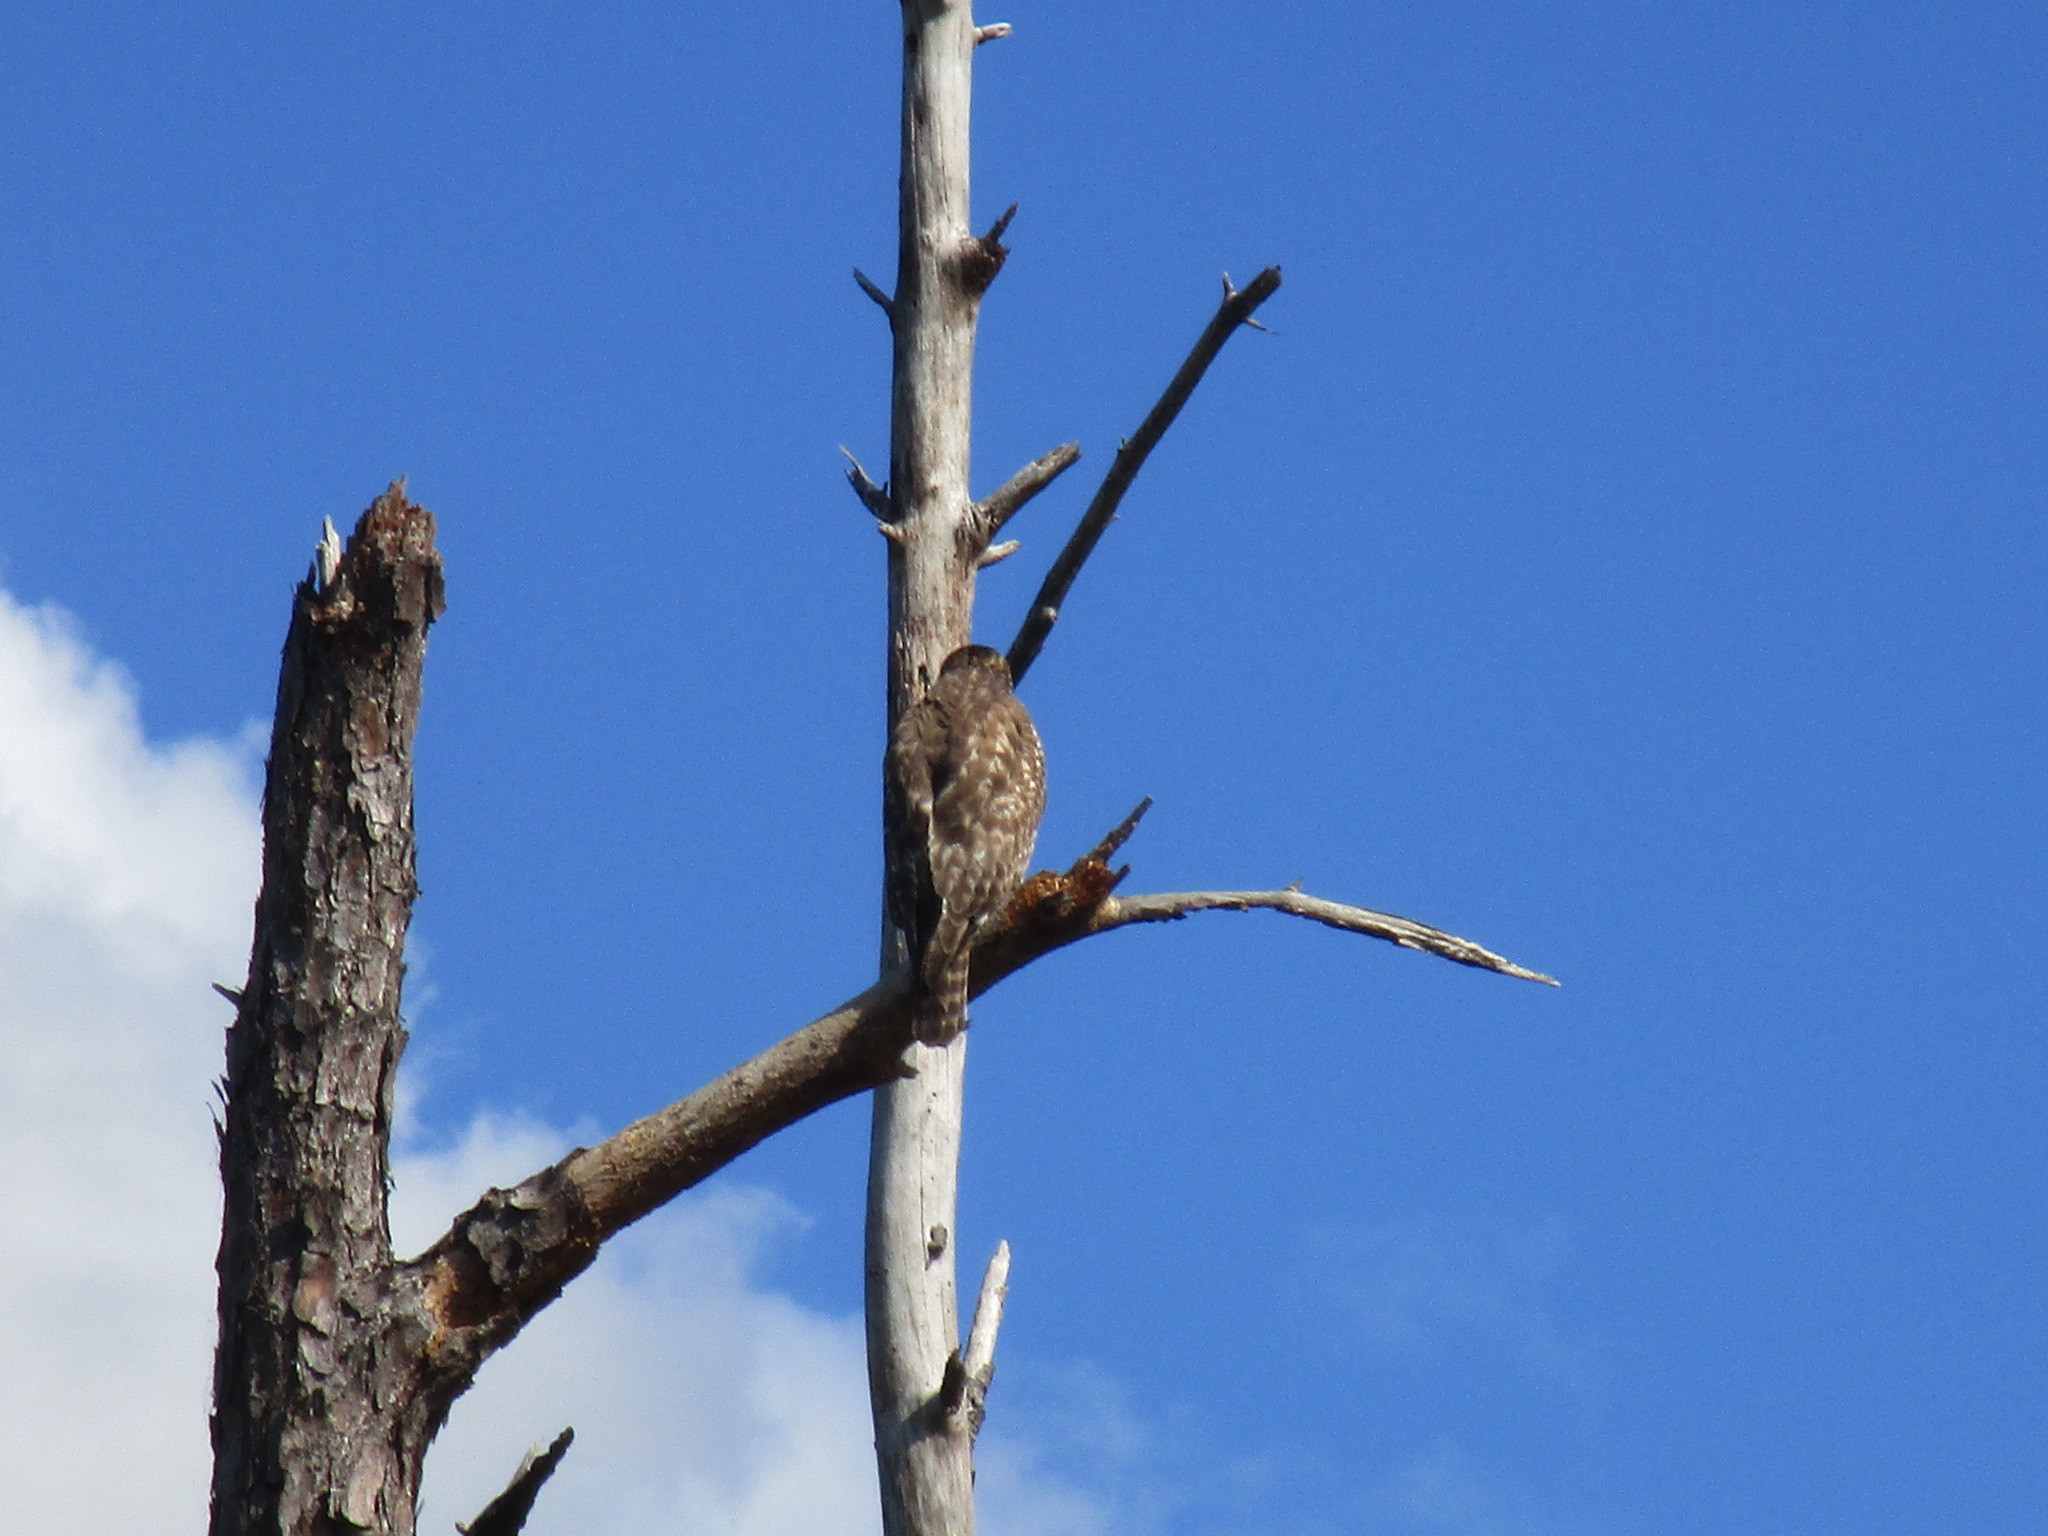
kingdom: Animalia
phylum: Chordata
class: Aves
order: Accipitriformes
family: Accipitridae
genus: Buteo
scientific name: Buteo lineatus
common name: Red-shouldered hawk
